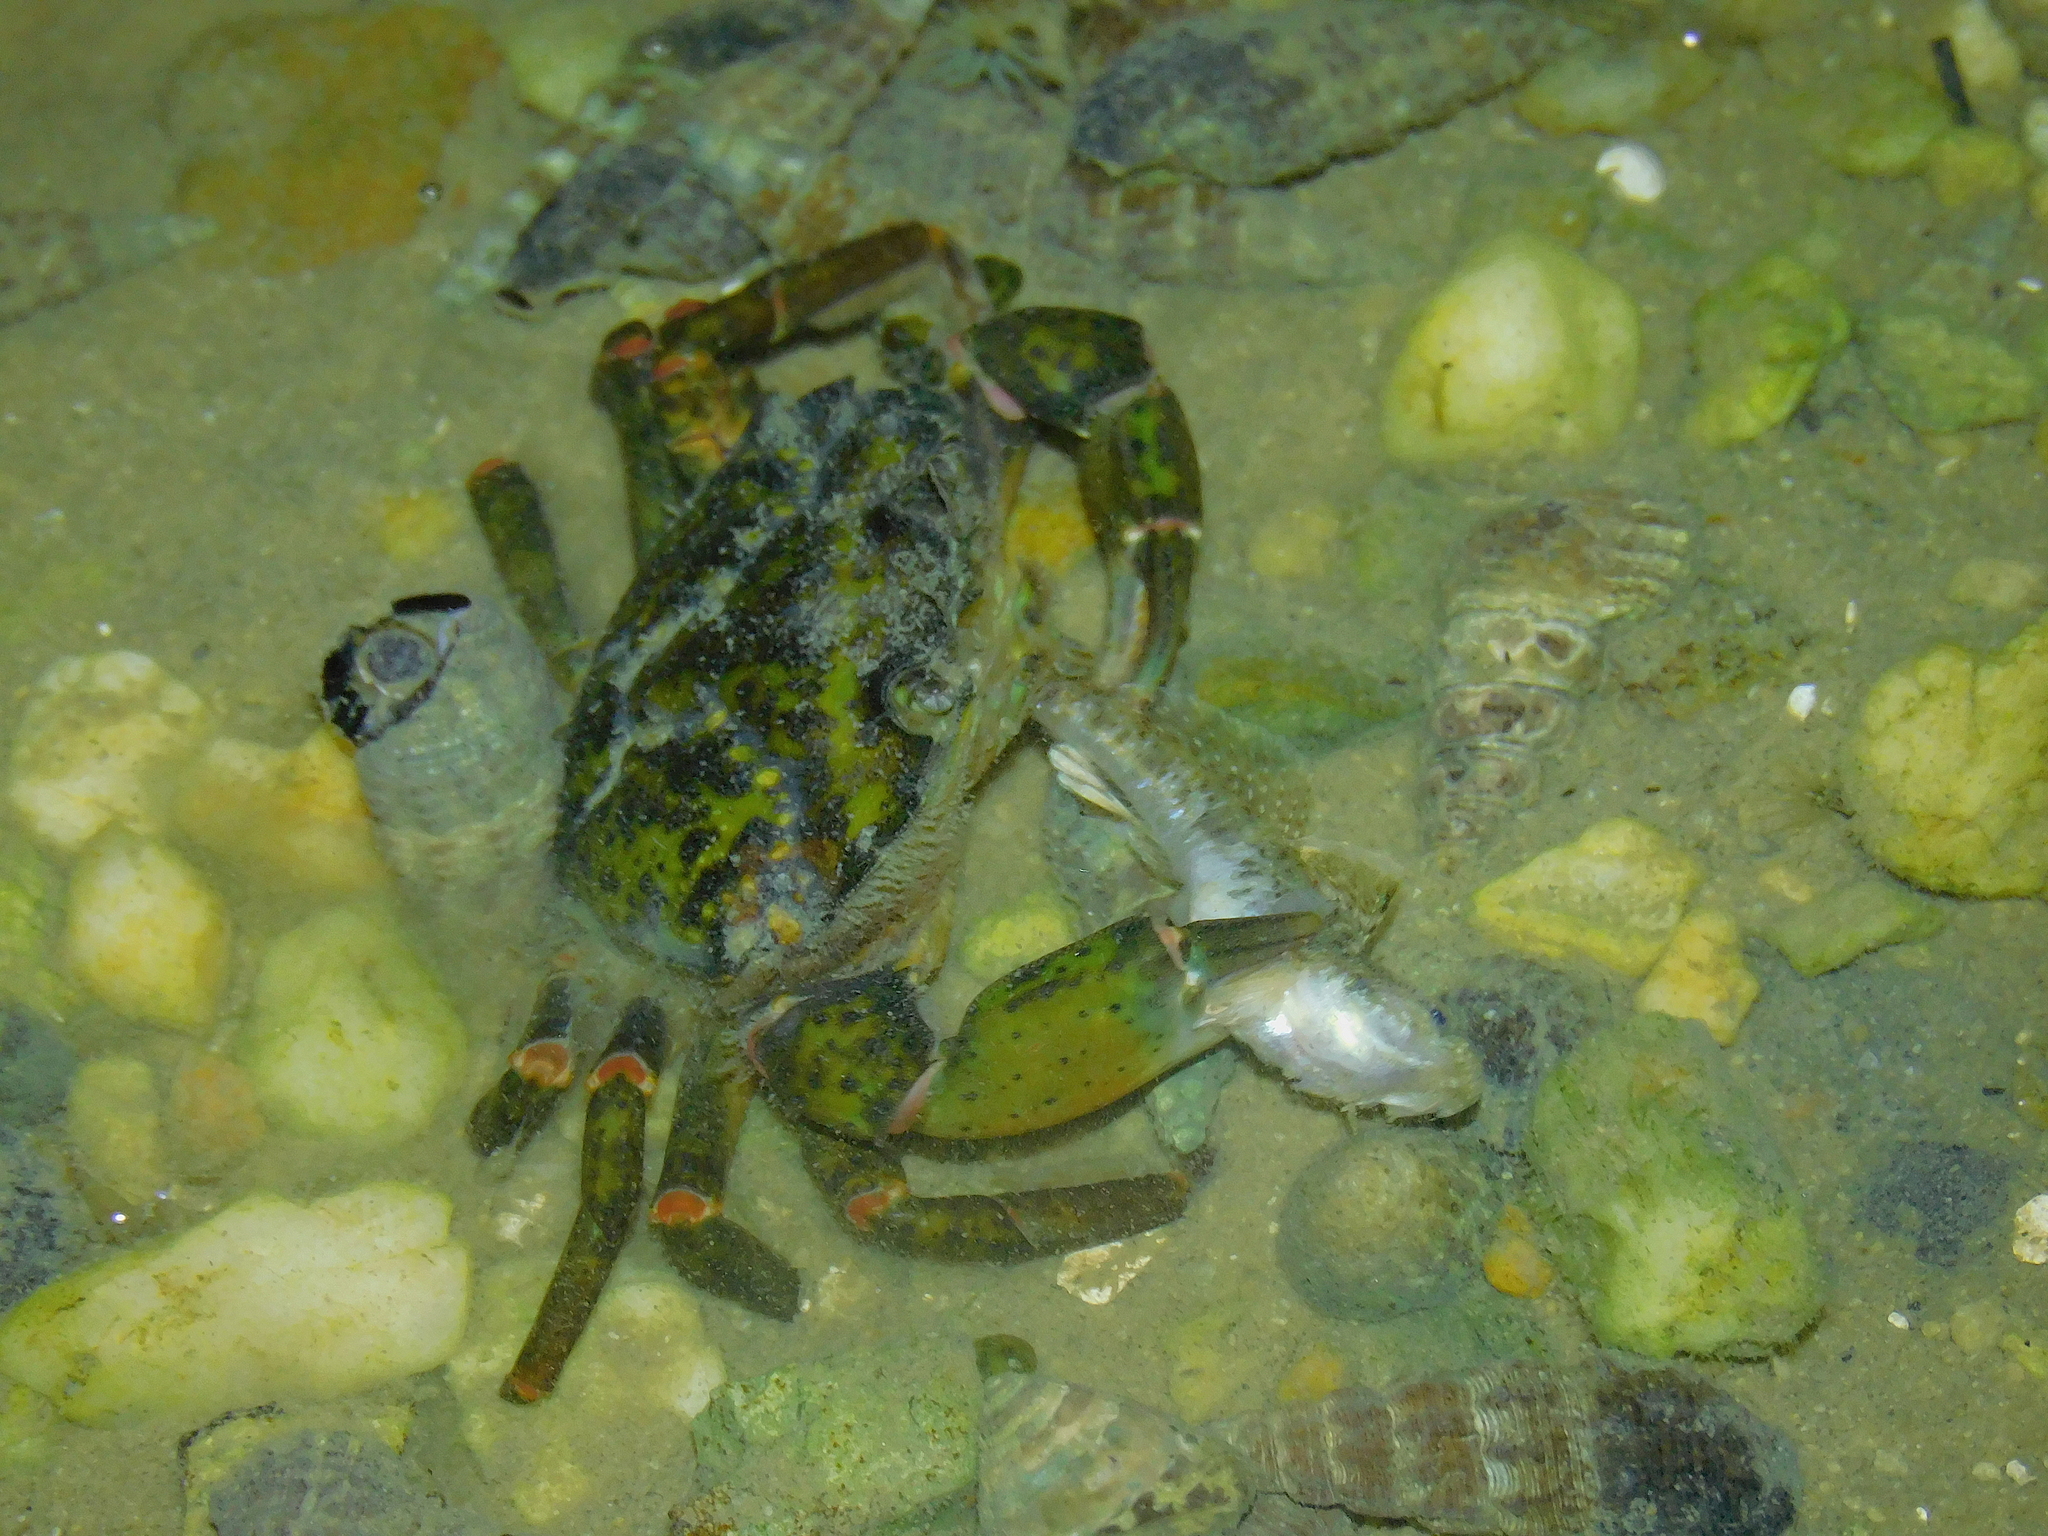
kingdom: Animalia
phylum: Arthropoda
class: Malacostraca
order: Decapoda
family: Carcinidae
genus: Carcinus
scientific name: Carcinus maenas
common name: European green crab
